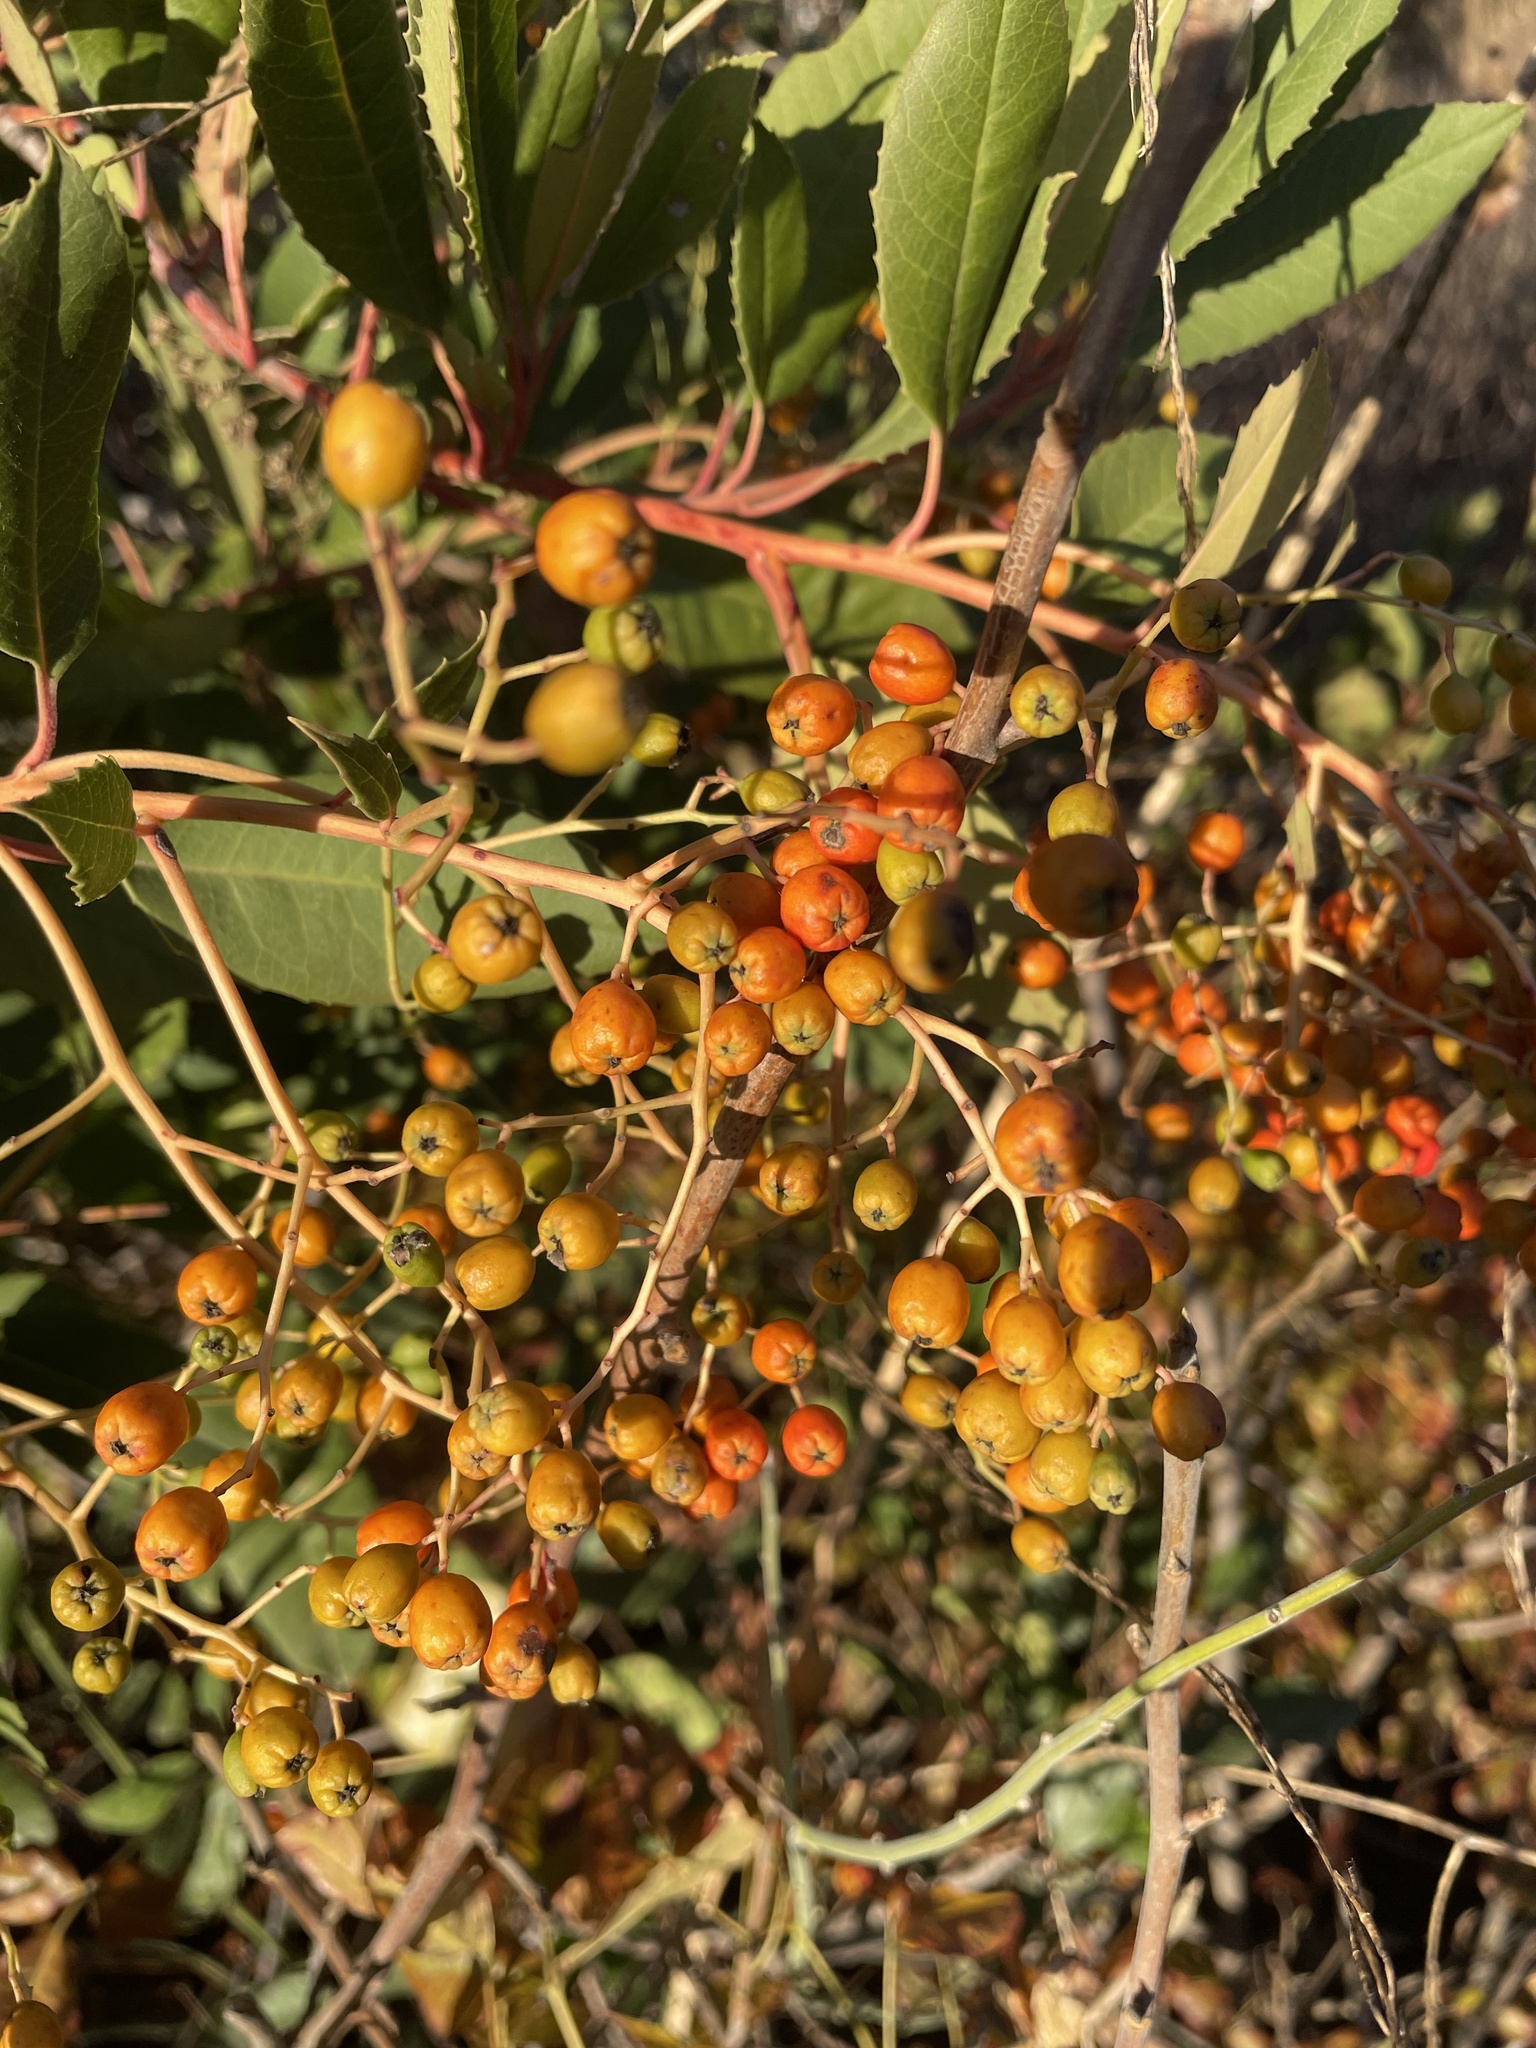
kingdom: Plantae
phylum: Tracheophyta
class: Magnoliopsida
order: Rosales
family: Rosaceae
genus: Heteromeles
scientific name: Heteromeles arbutifolia
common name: California-holly
